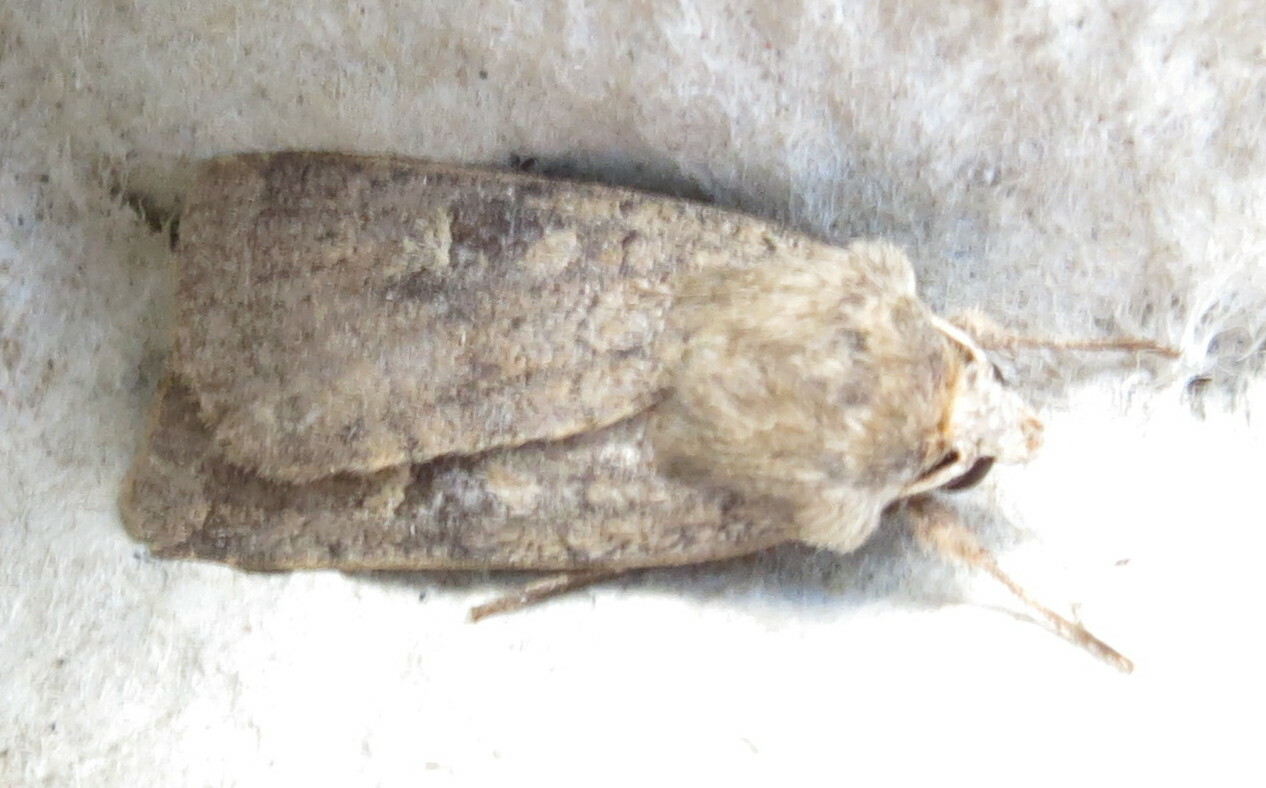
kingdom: Animalia
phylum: Arthropoda
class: Insecta
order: Lepidoptera
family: Noctuidae
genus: Xestia
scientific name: Xestia xanthographa
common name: Square-spot rustic
